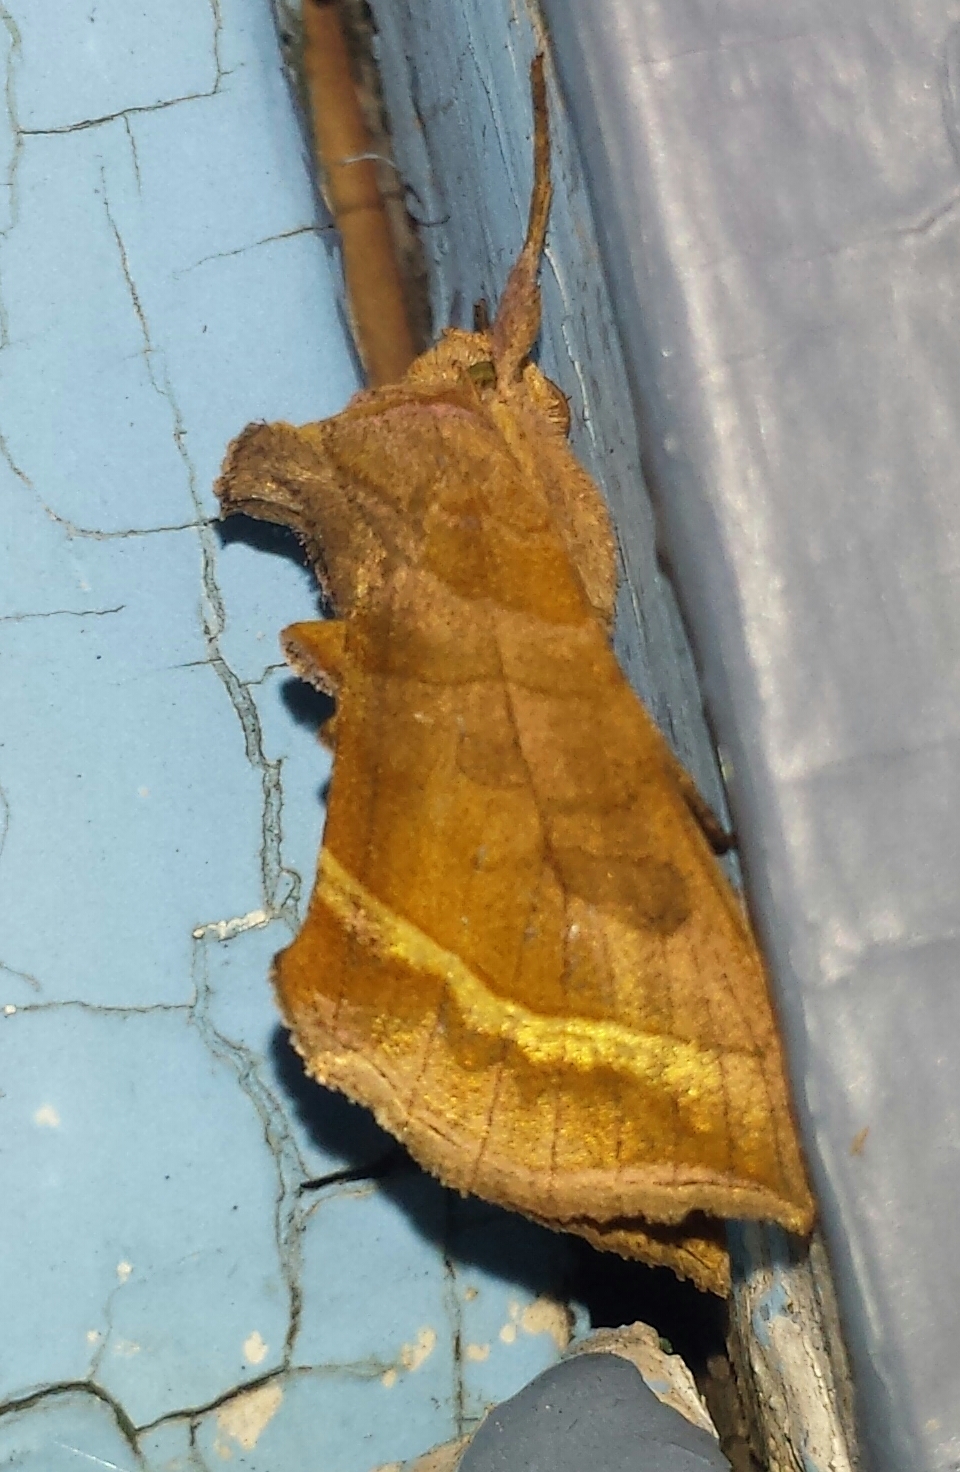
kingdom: Animalia
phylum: Arthropoda
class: Insecta
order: Lepidoptera
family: Noctuidae
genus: Diachrysia
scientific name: Diachrysia aereoides
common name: Dark-spotted looper moth
